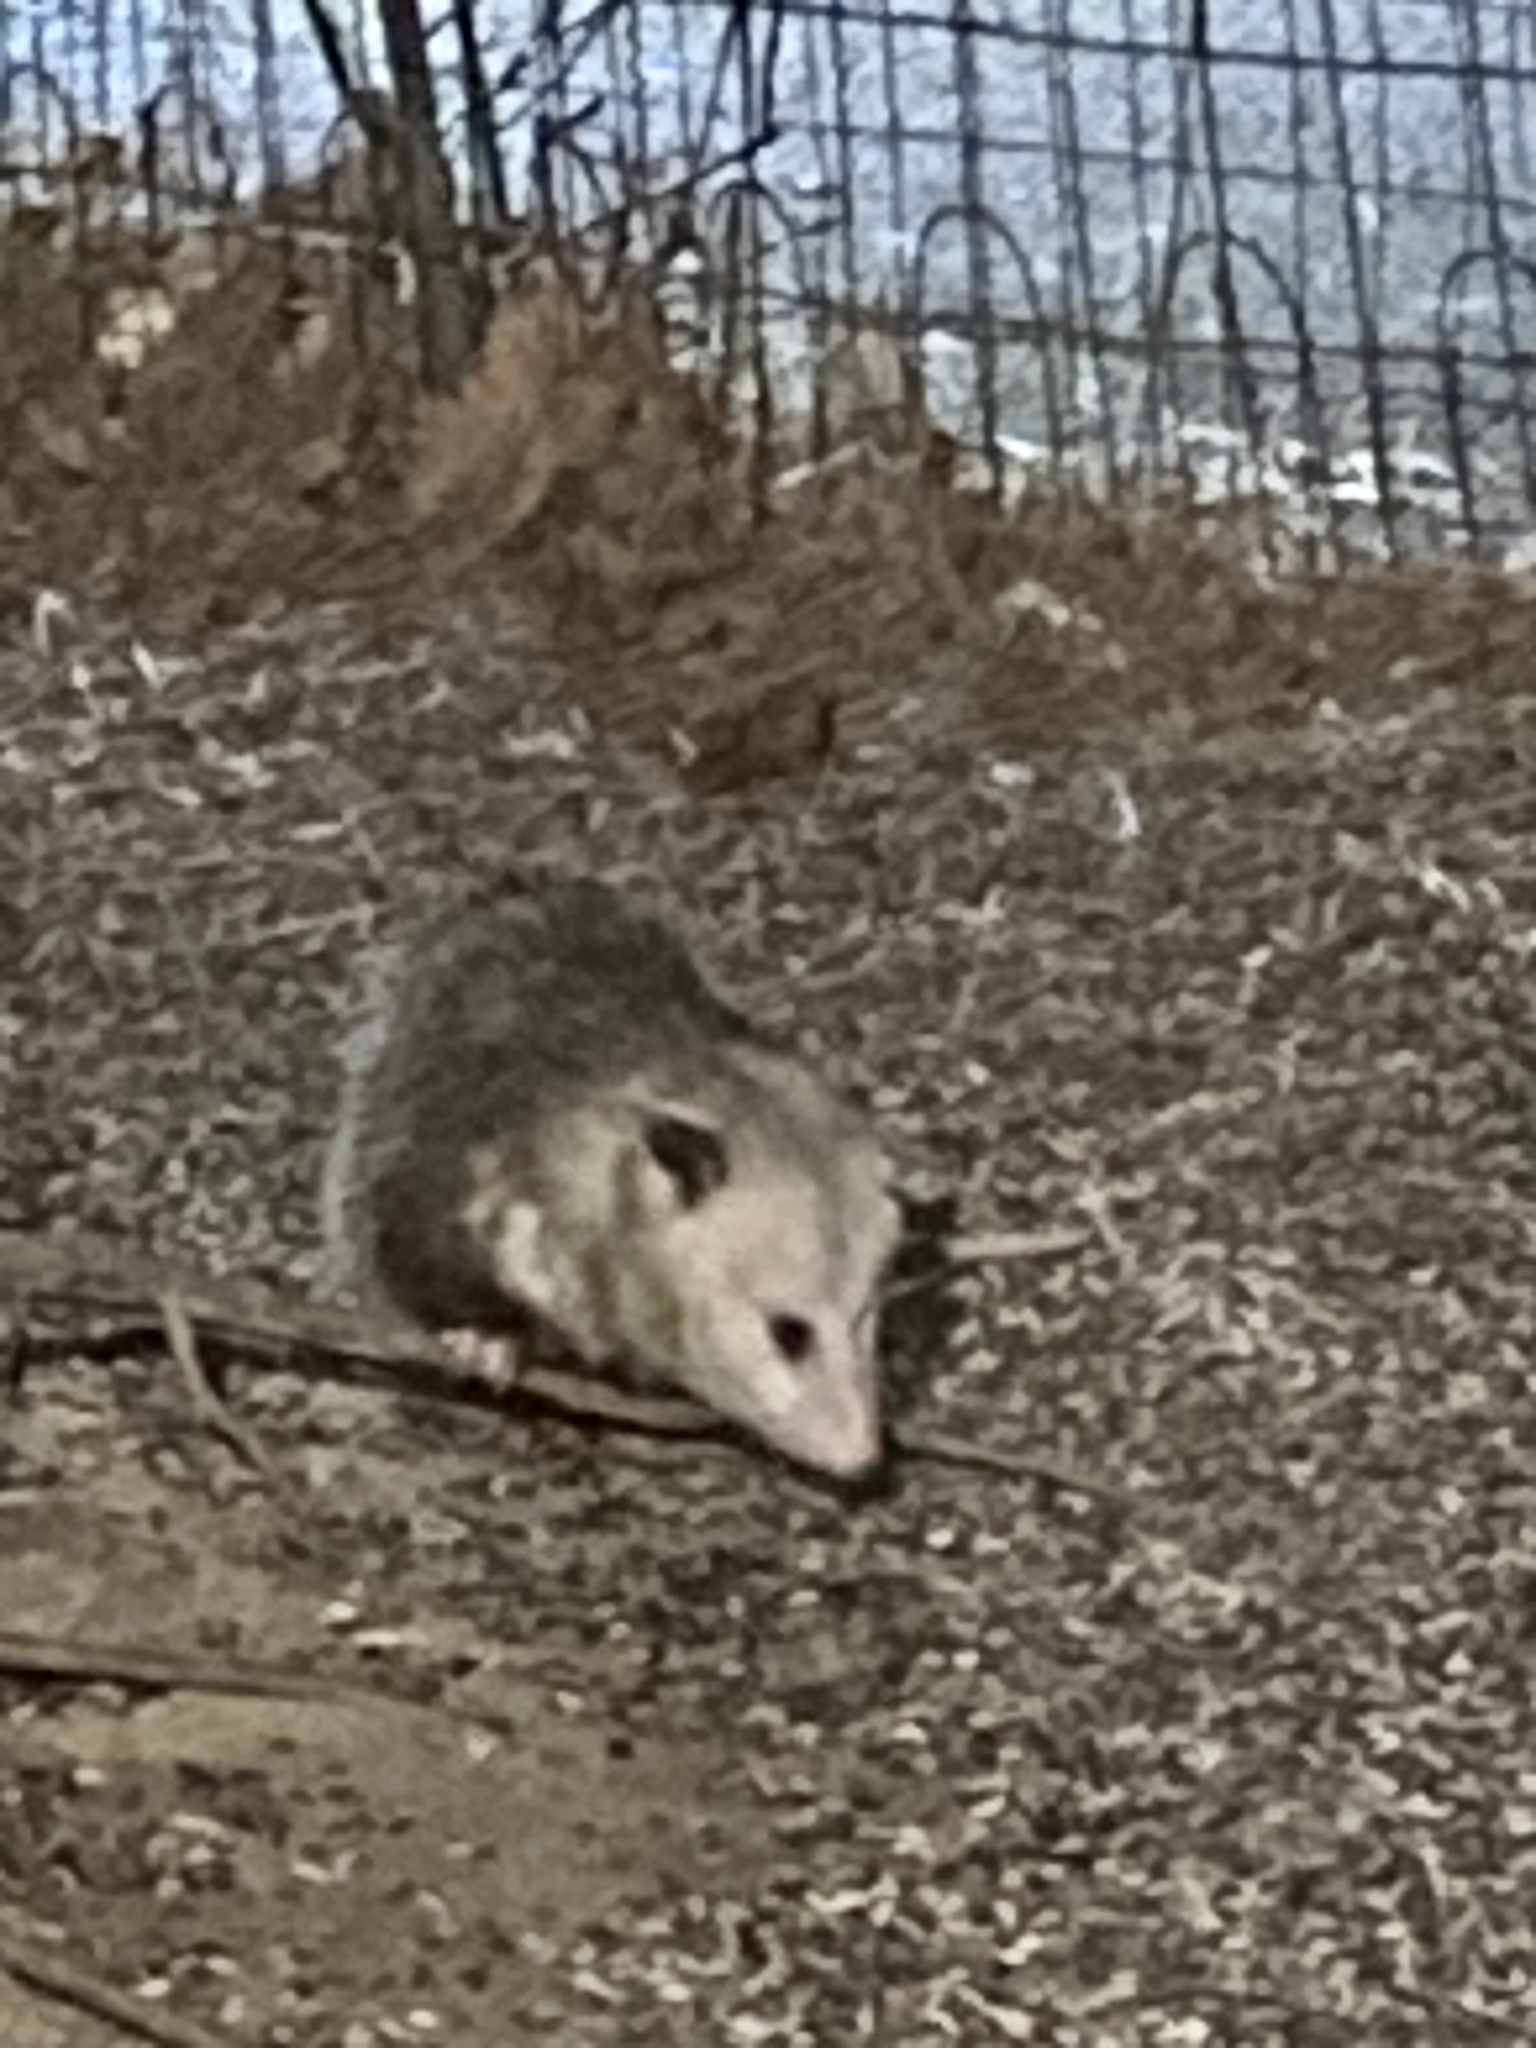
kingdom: Animalia
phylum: Chordata
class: Mammalia
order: Didelphimorphia
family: Didelphidae
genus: Didelphis
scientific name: Didelphis virginiana
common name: Virginia opossum
